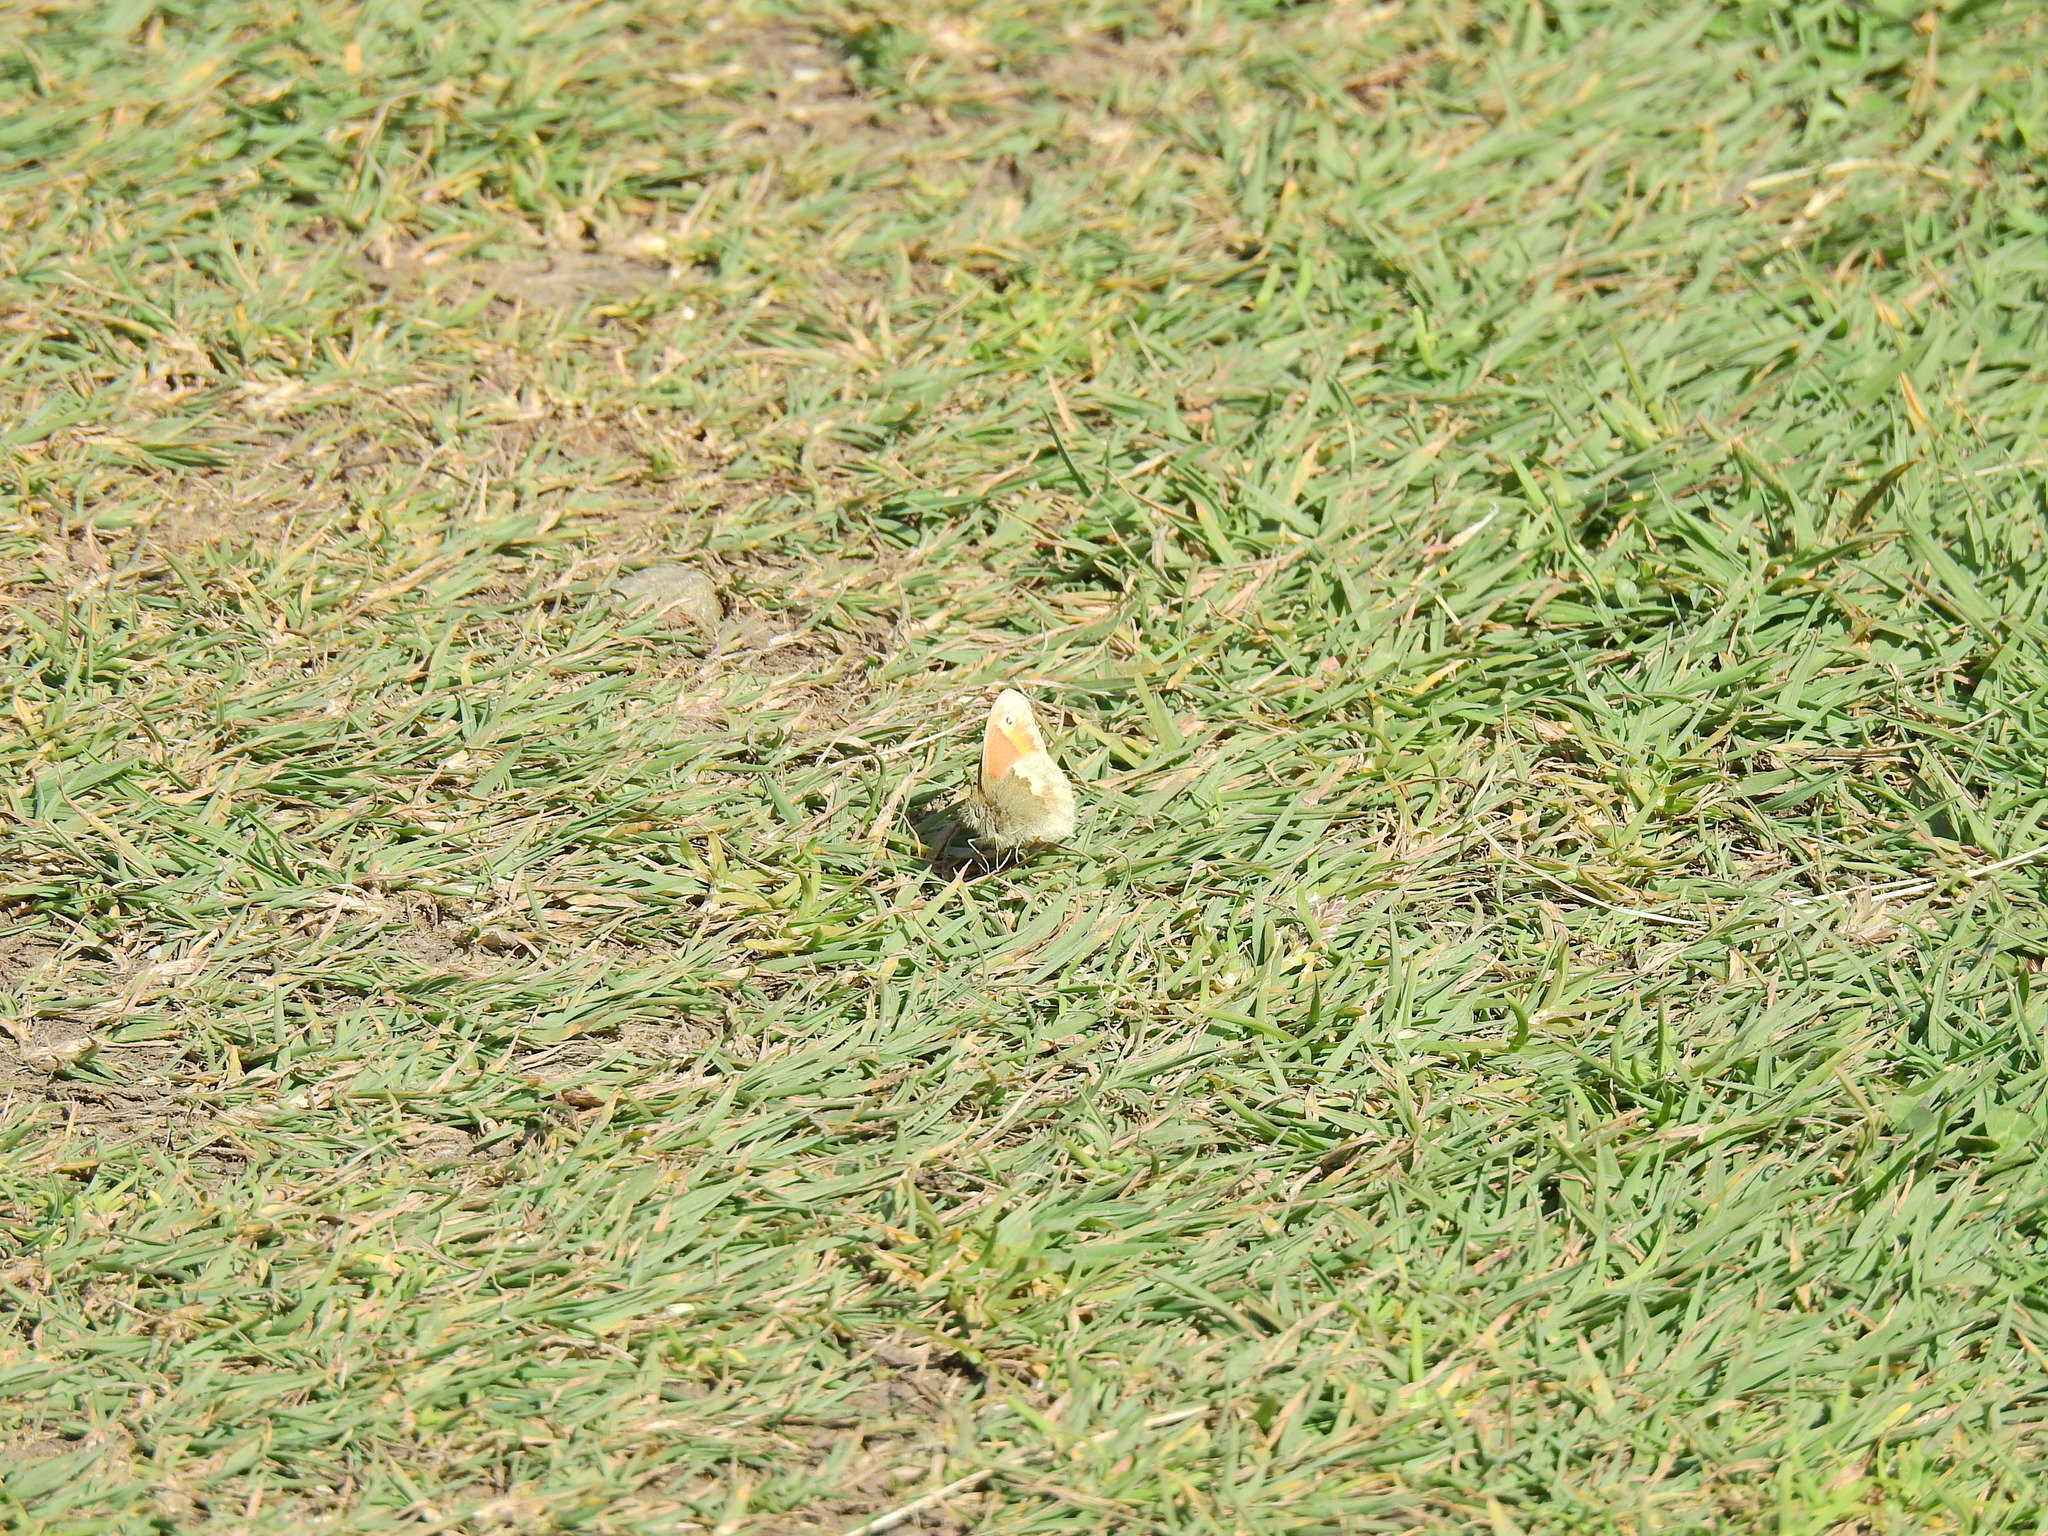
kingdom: Animalia
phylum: Arthropoda
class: Insecta
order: Lepidoptera
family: Nymphalidae
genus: Coenonympha
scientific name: Coenonympha pamphilus
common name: Small heath
